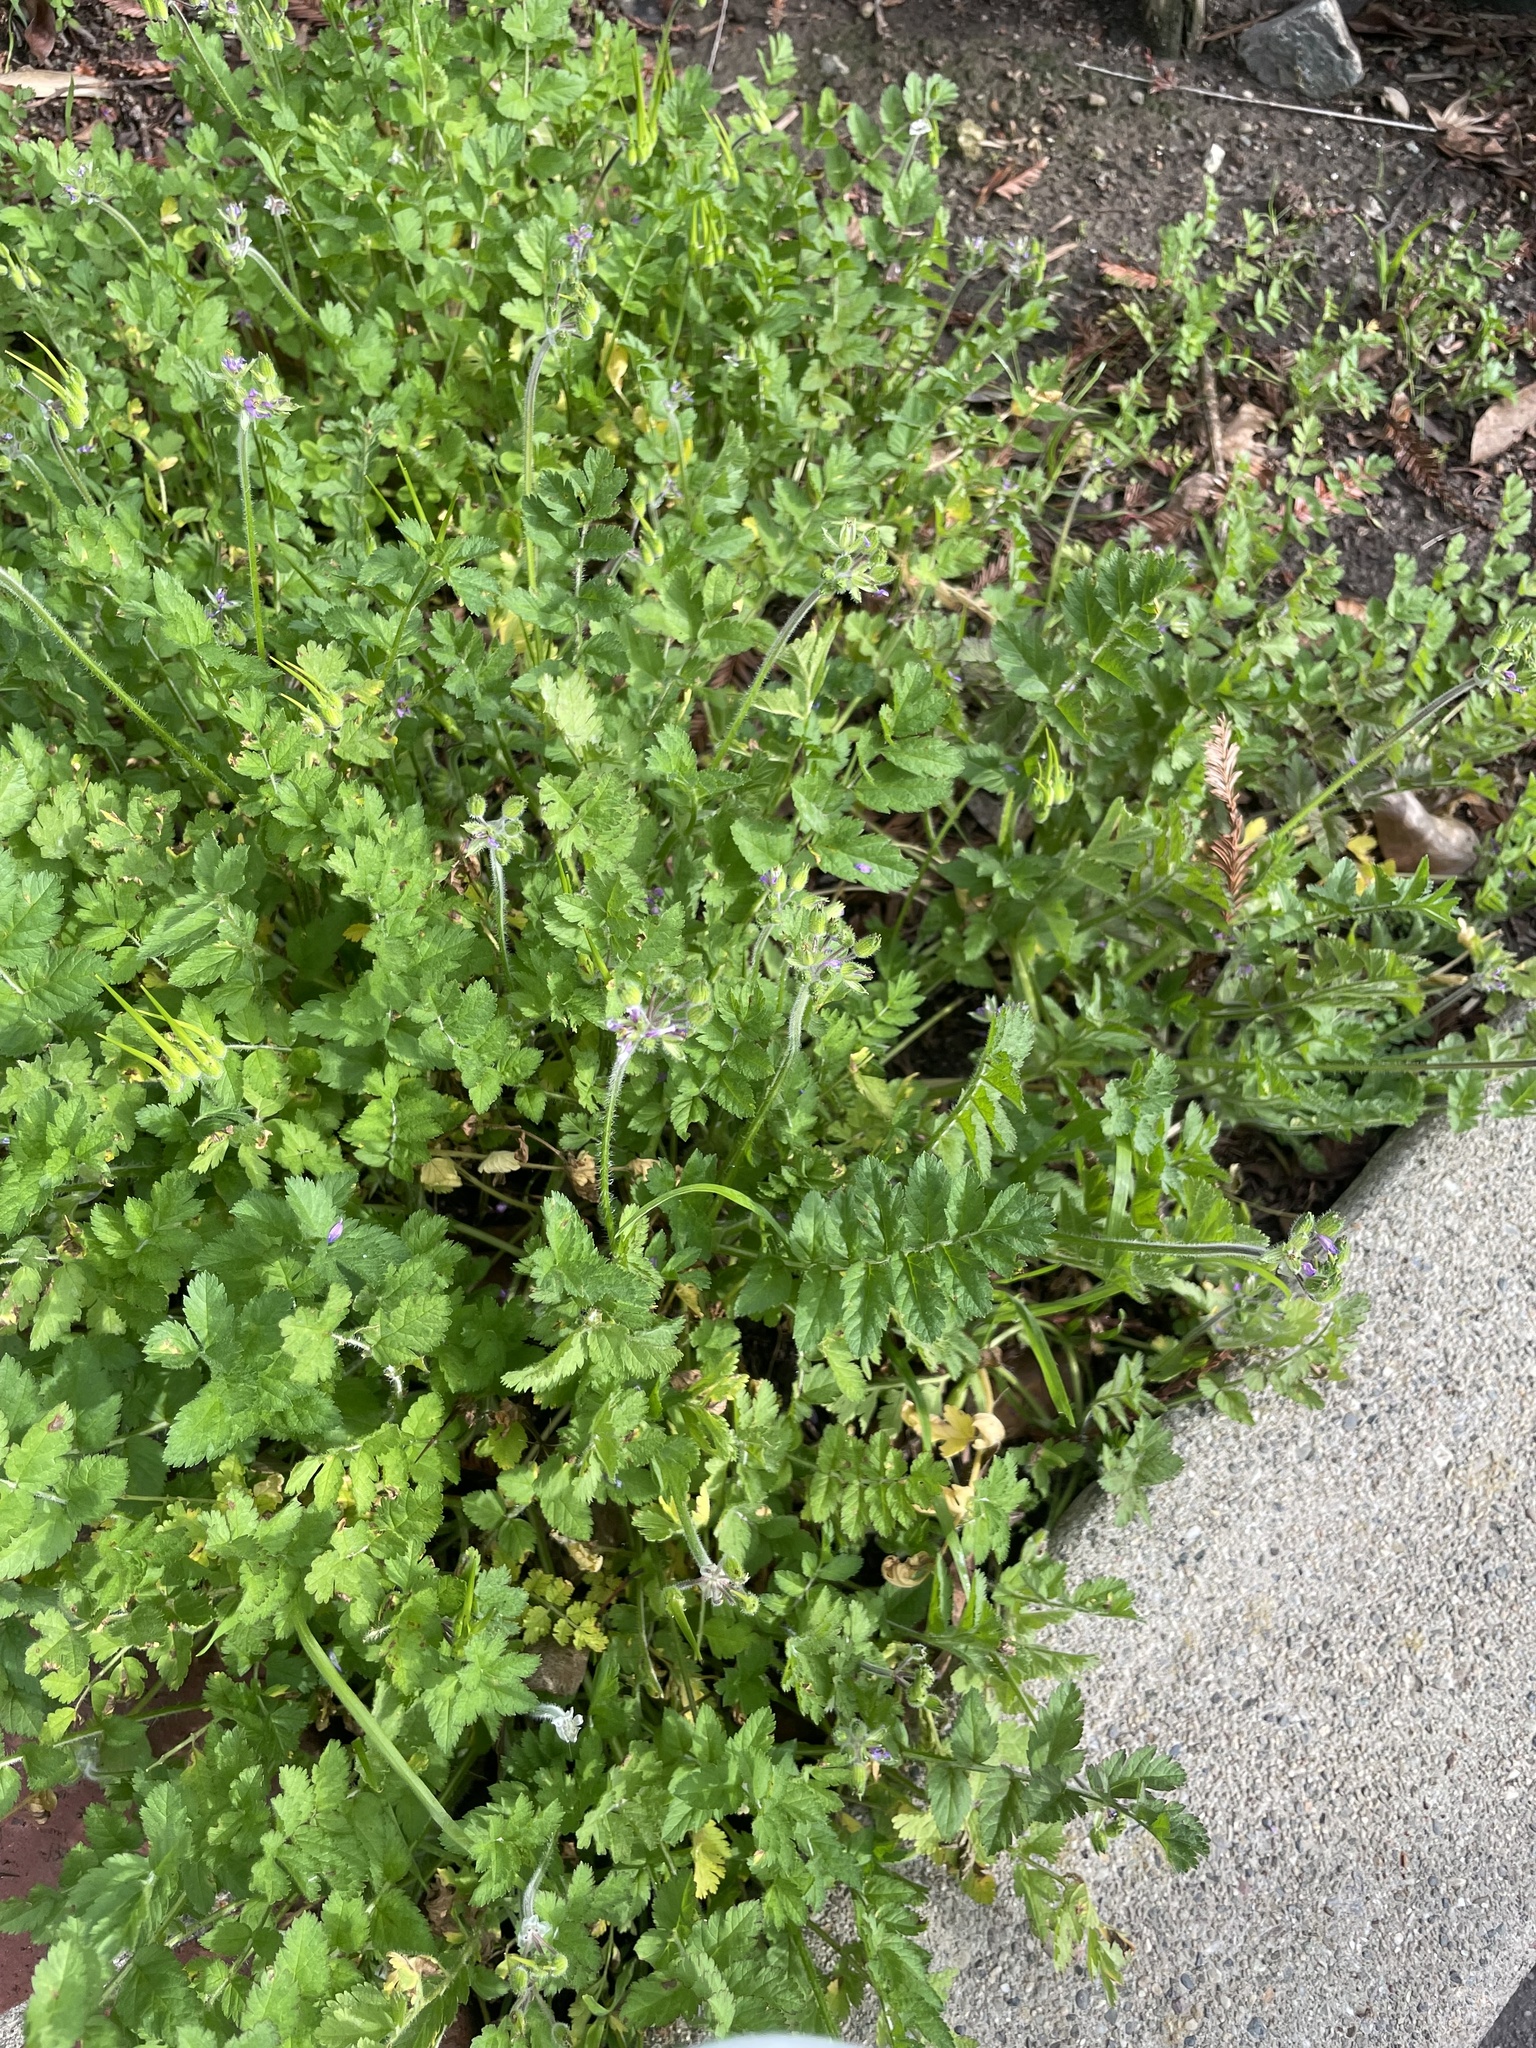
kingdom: Plantae
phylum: Tracheophyta
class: Magnoliopsida
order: Geraniales
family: Geraniaceae
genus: Erodium
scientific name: Erodium moschatum
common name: Musk stork's-bill
